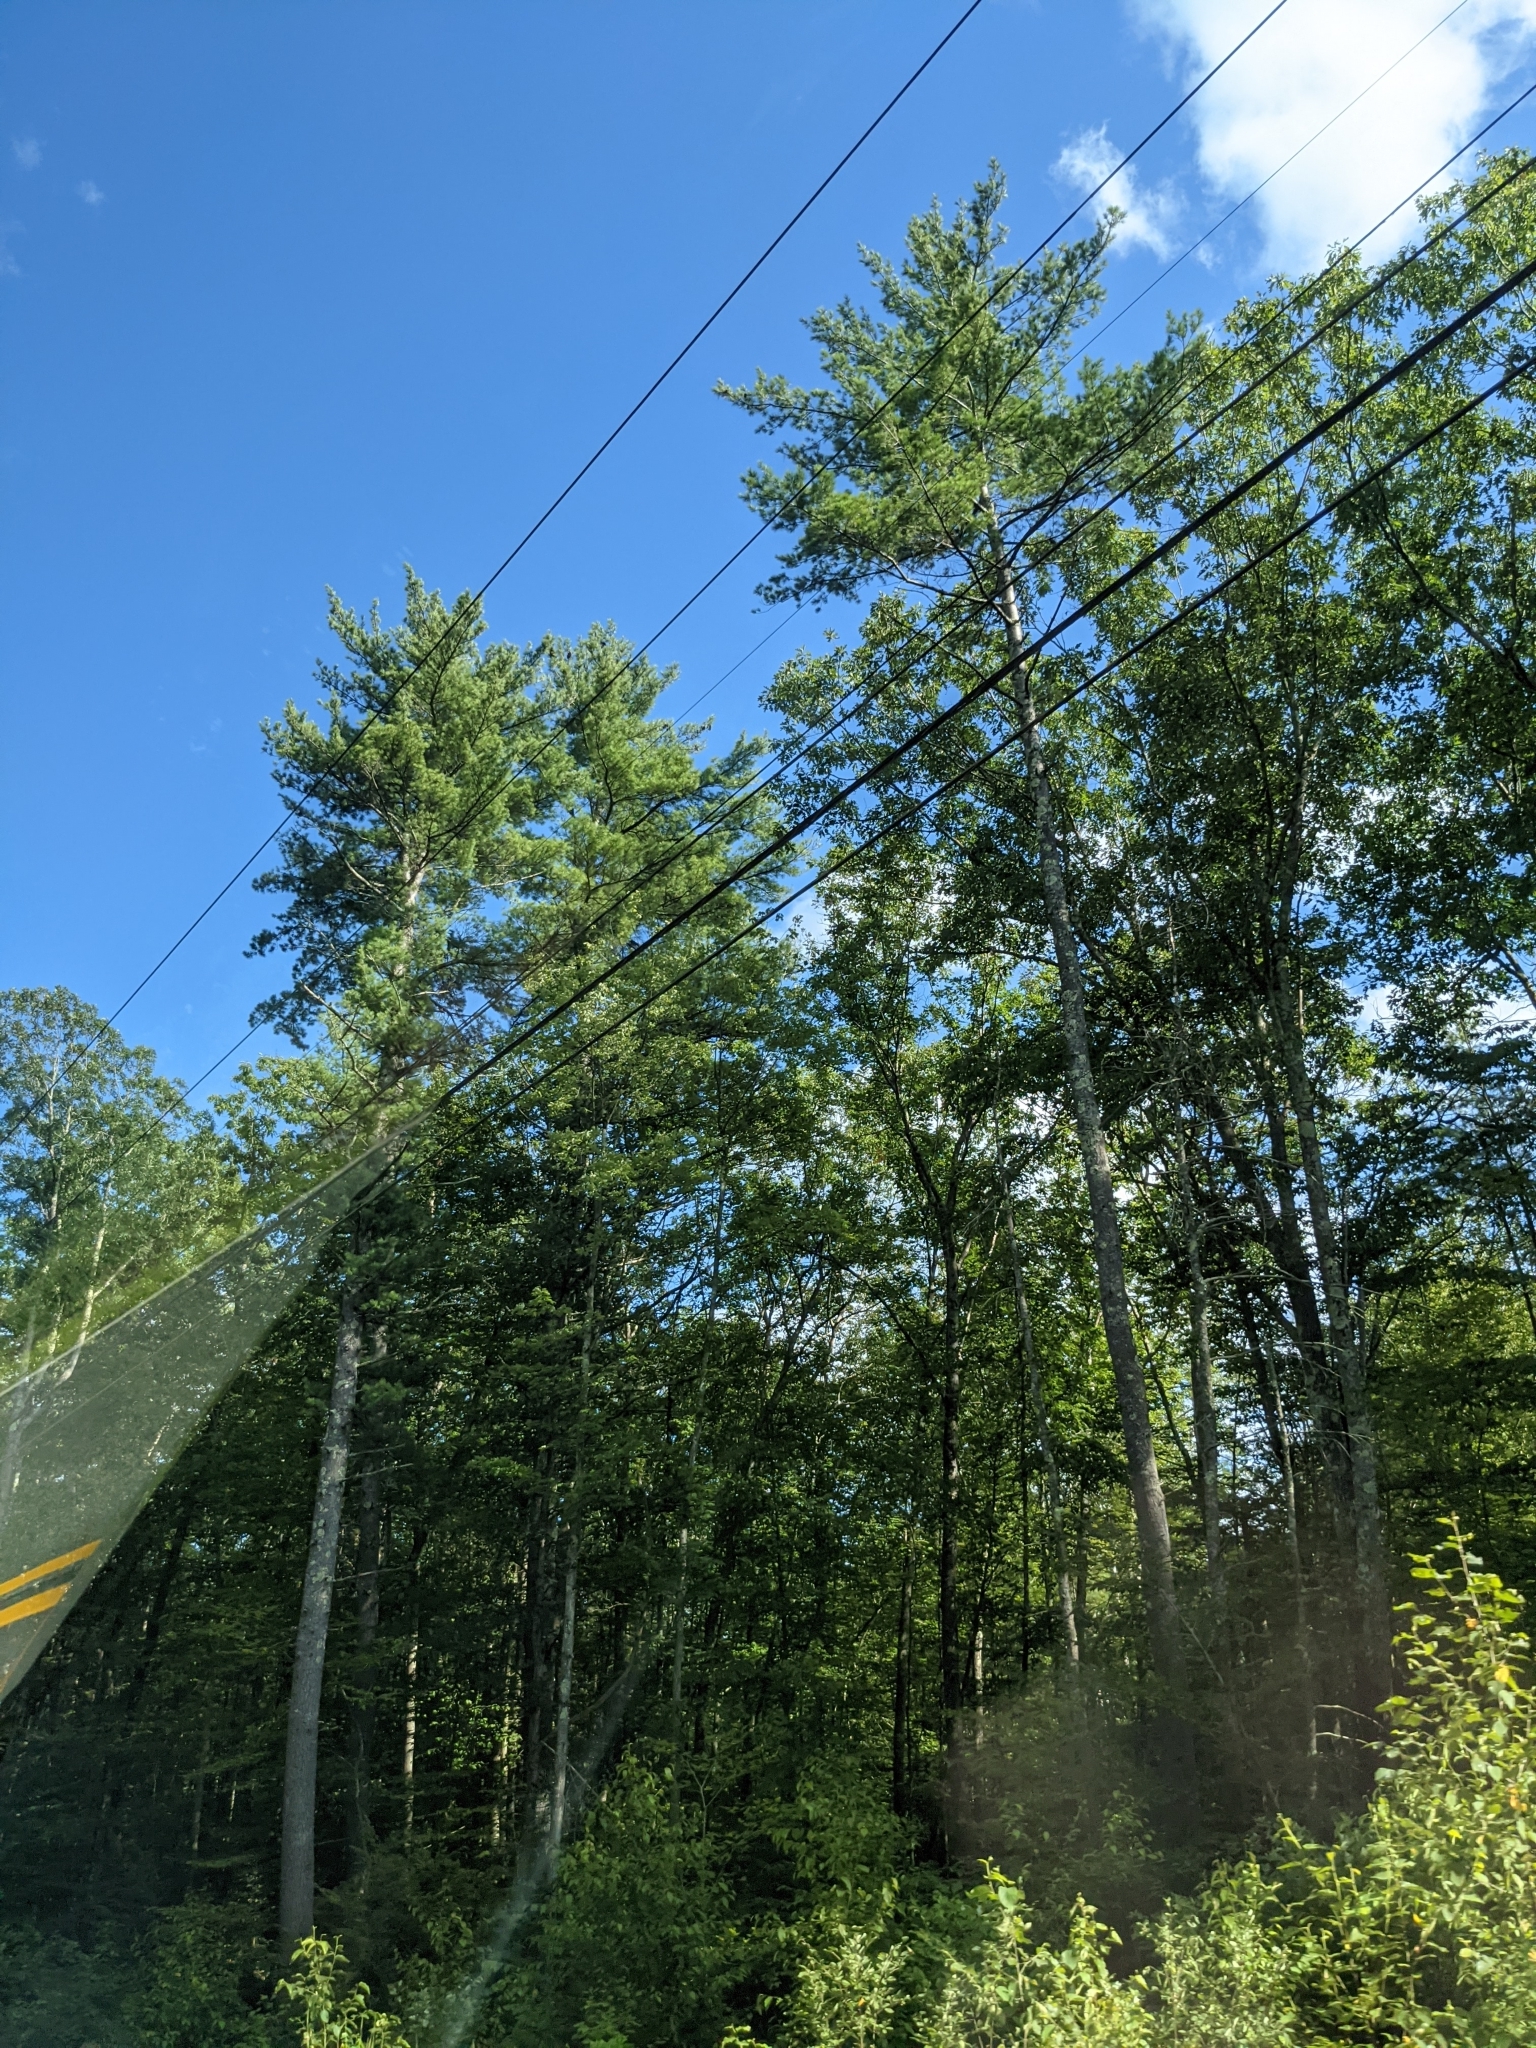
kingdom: Plantae
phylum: Tracheophyta
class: Pinopsida
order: Pinales
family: Pinaceae
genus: Pinus
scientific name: Pinus strobus
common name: Weymouth pine
